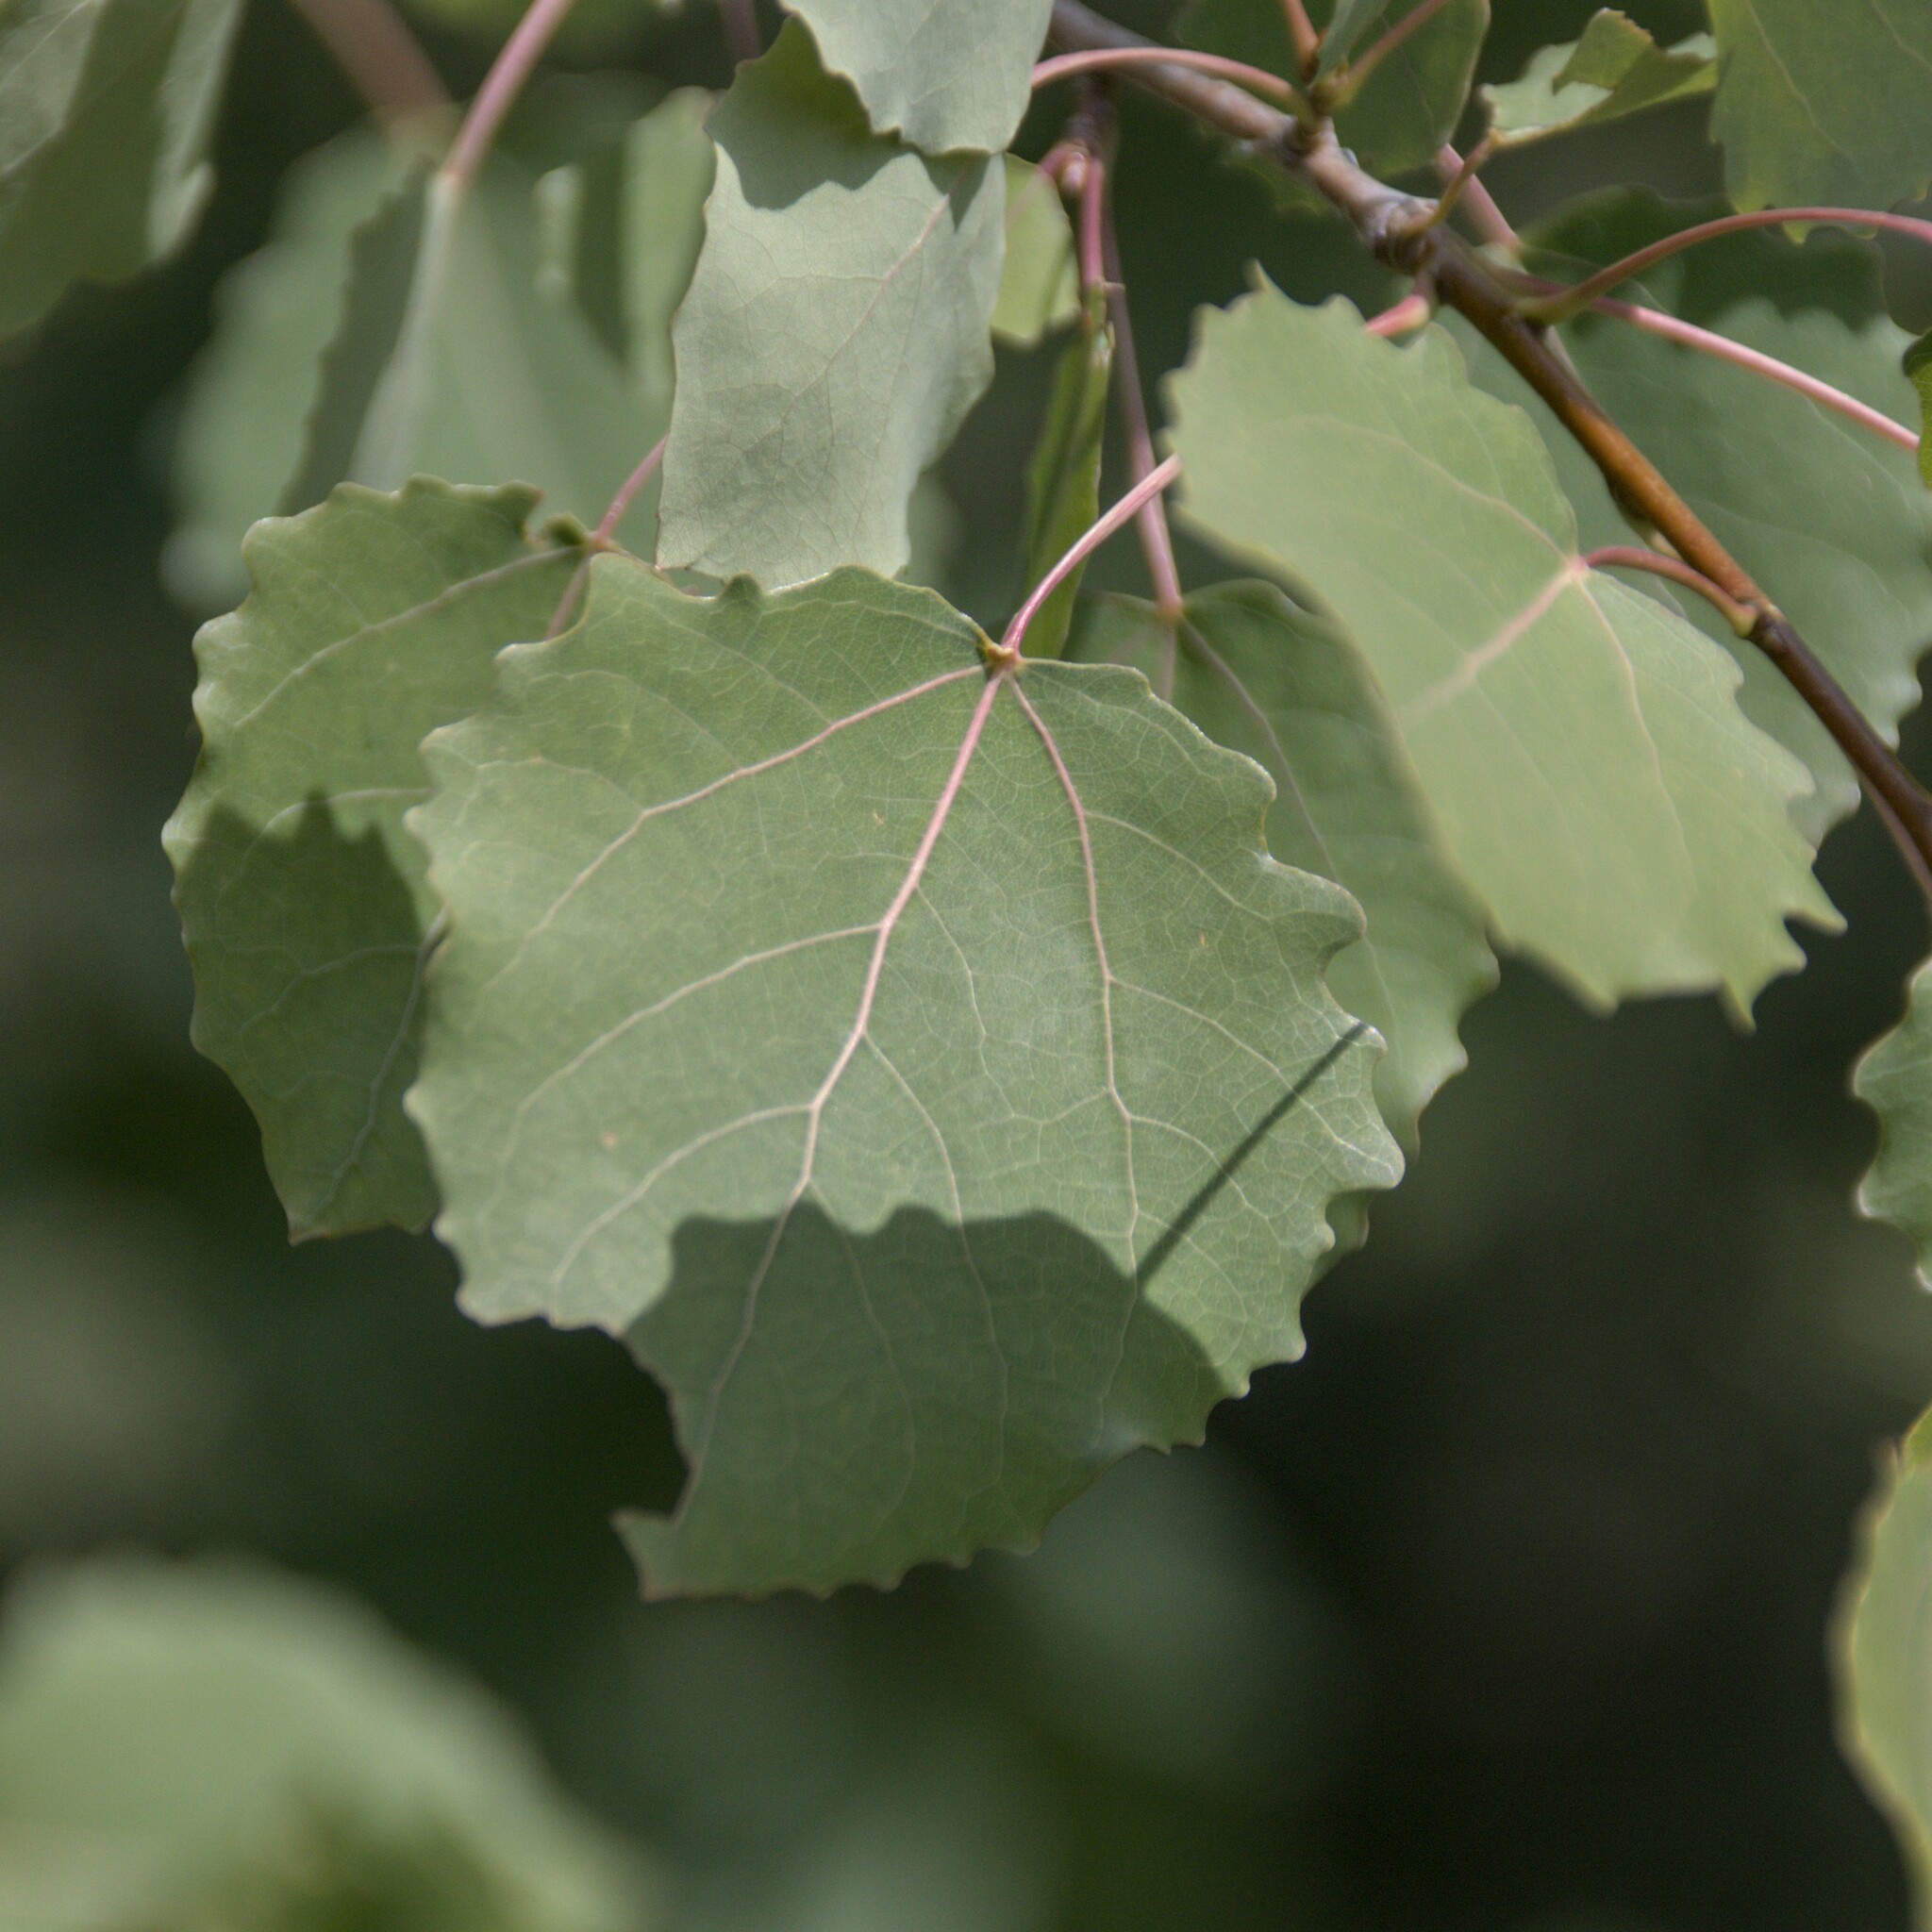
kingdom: Plantae
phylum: Tracheophyta
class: Magnoliopsida
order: Malpighiales
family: Salicaceae
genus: Populus
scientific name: Populus tremula
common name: European aspen
